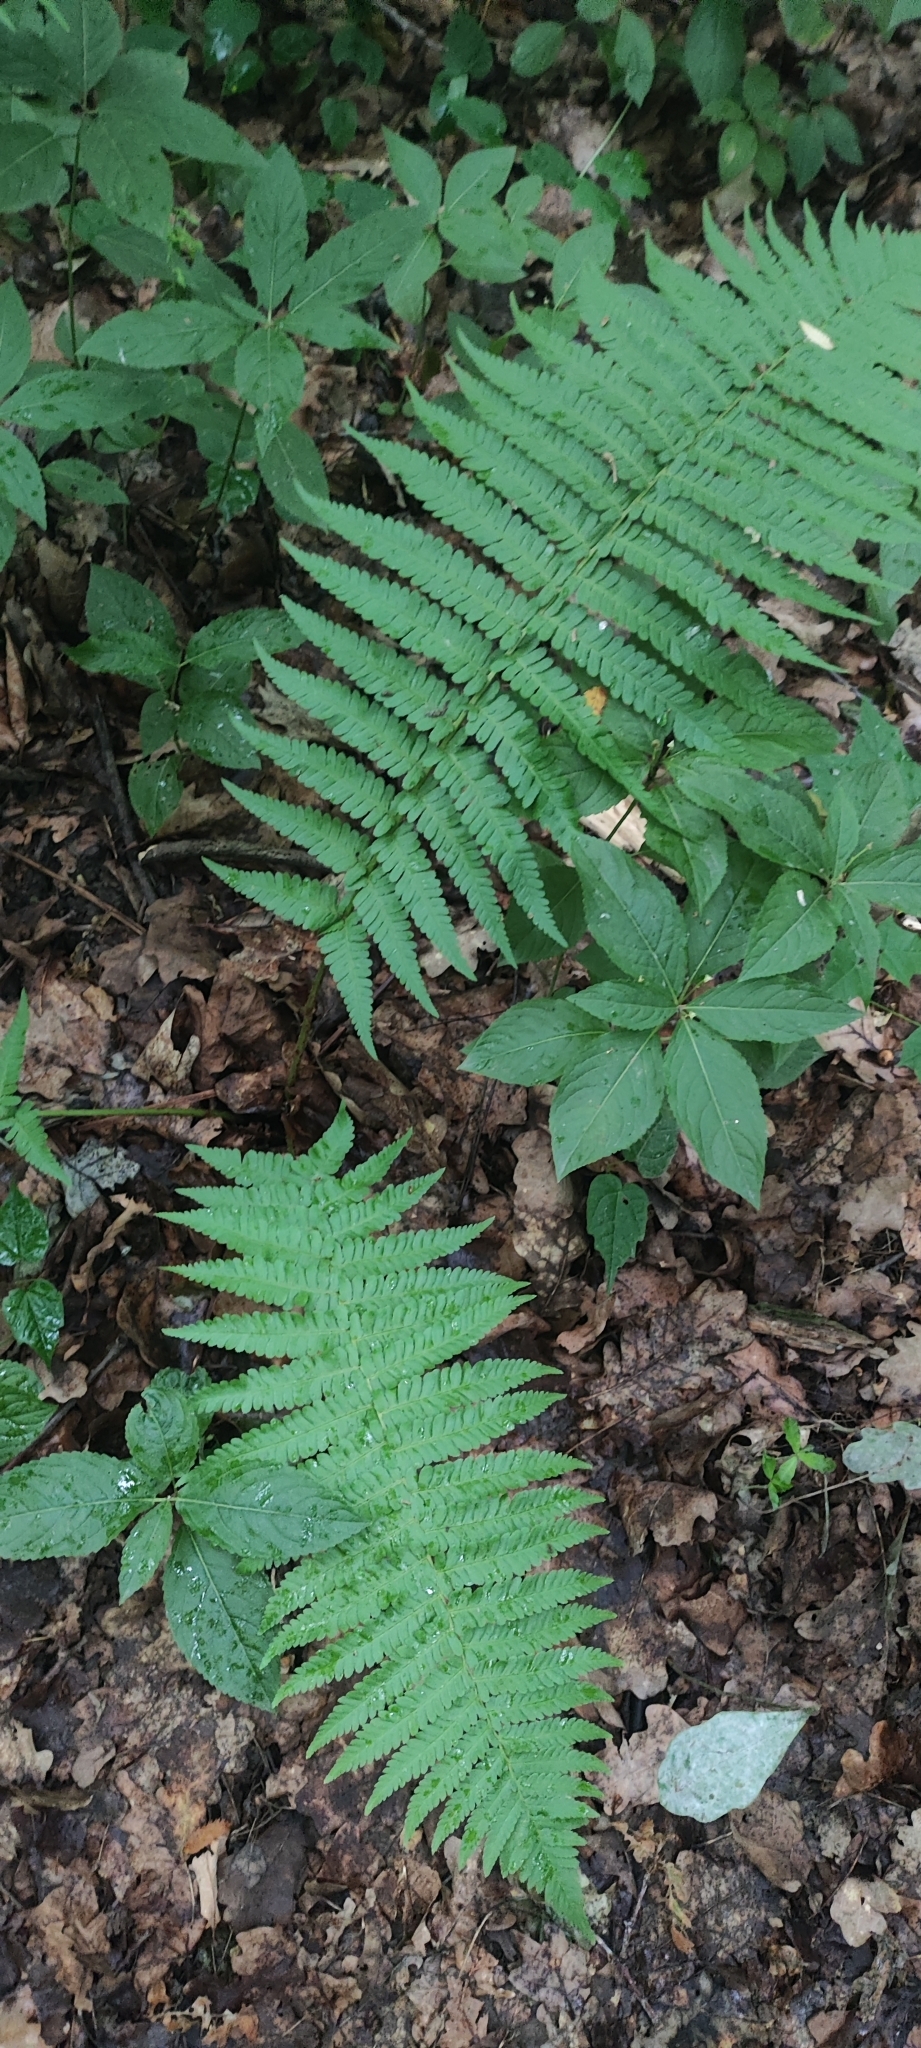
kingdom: Plantae
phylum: Tracheophyta
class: Polypodiopsida
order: Polypodiales
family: Dryopteridaceae
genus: Dryopteris
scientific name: Dryopteris filix-mas
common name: Male fern
